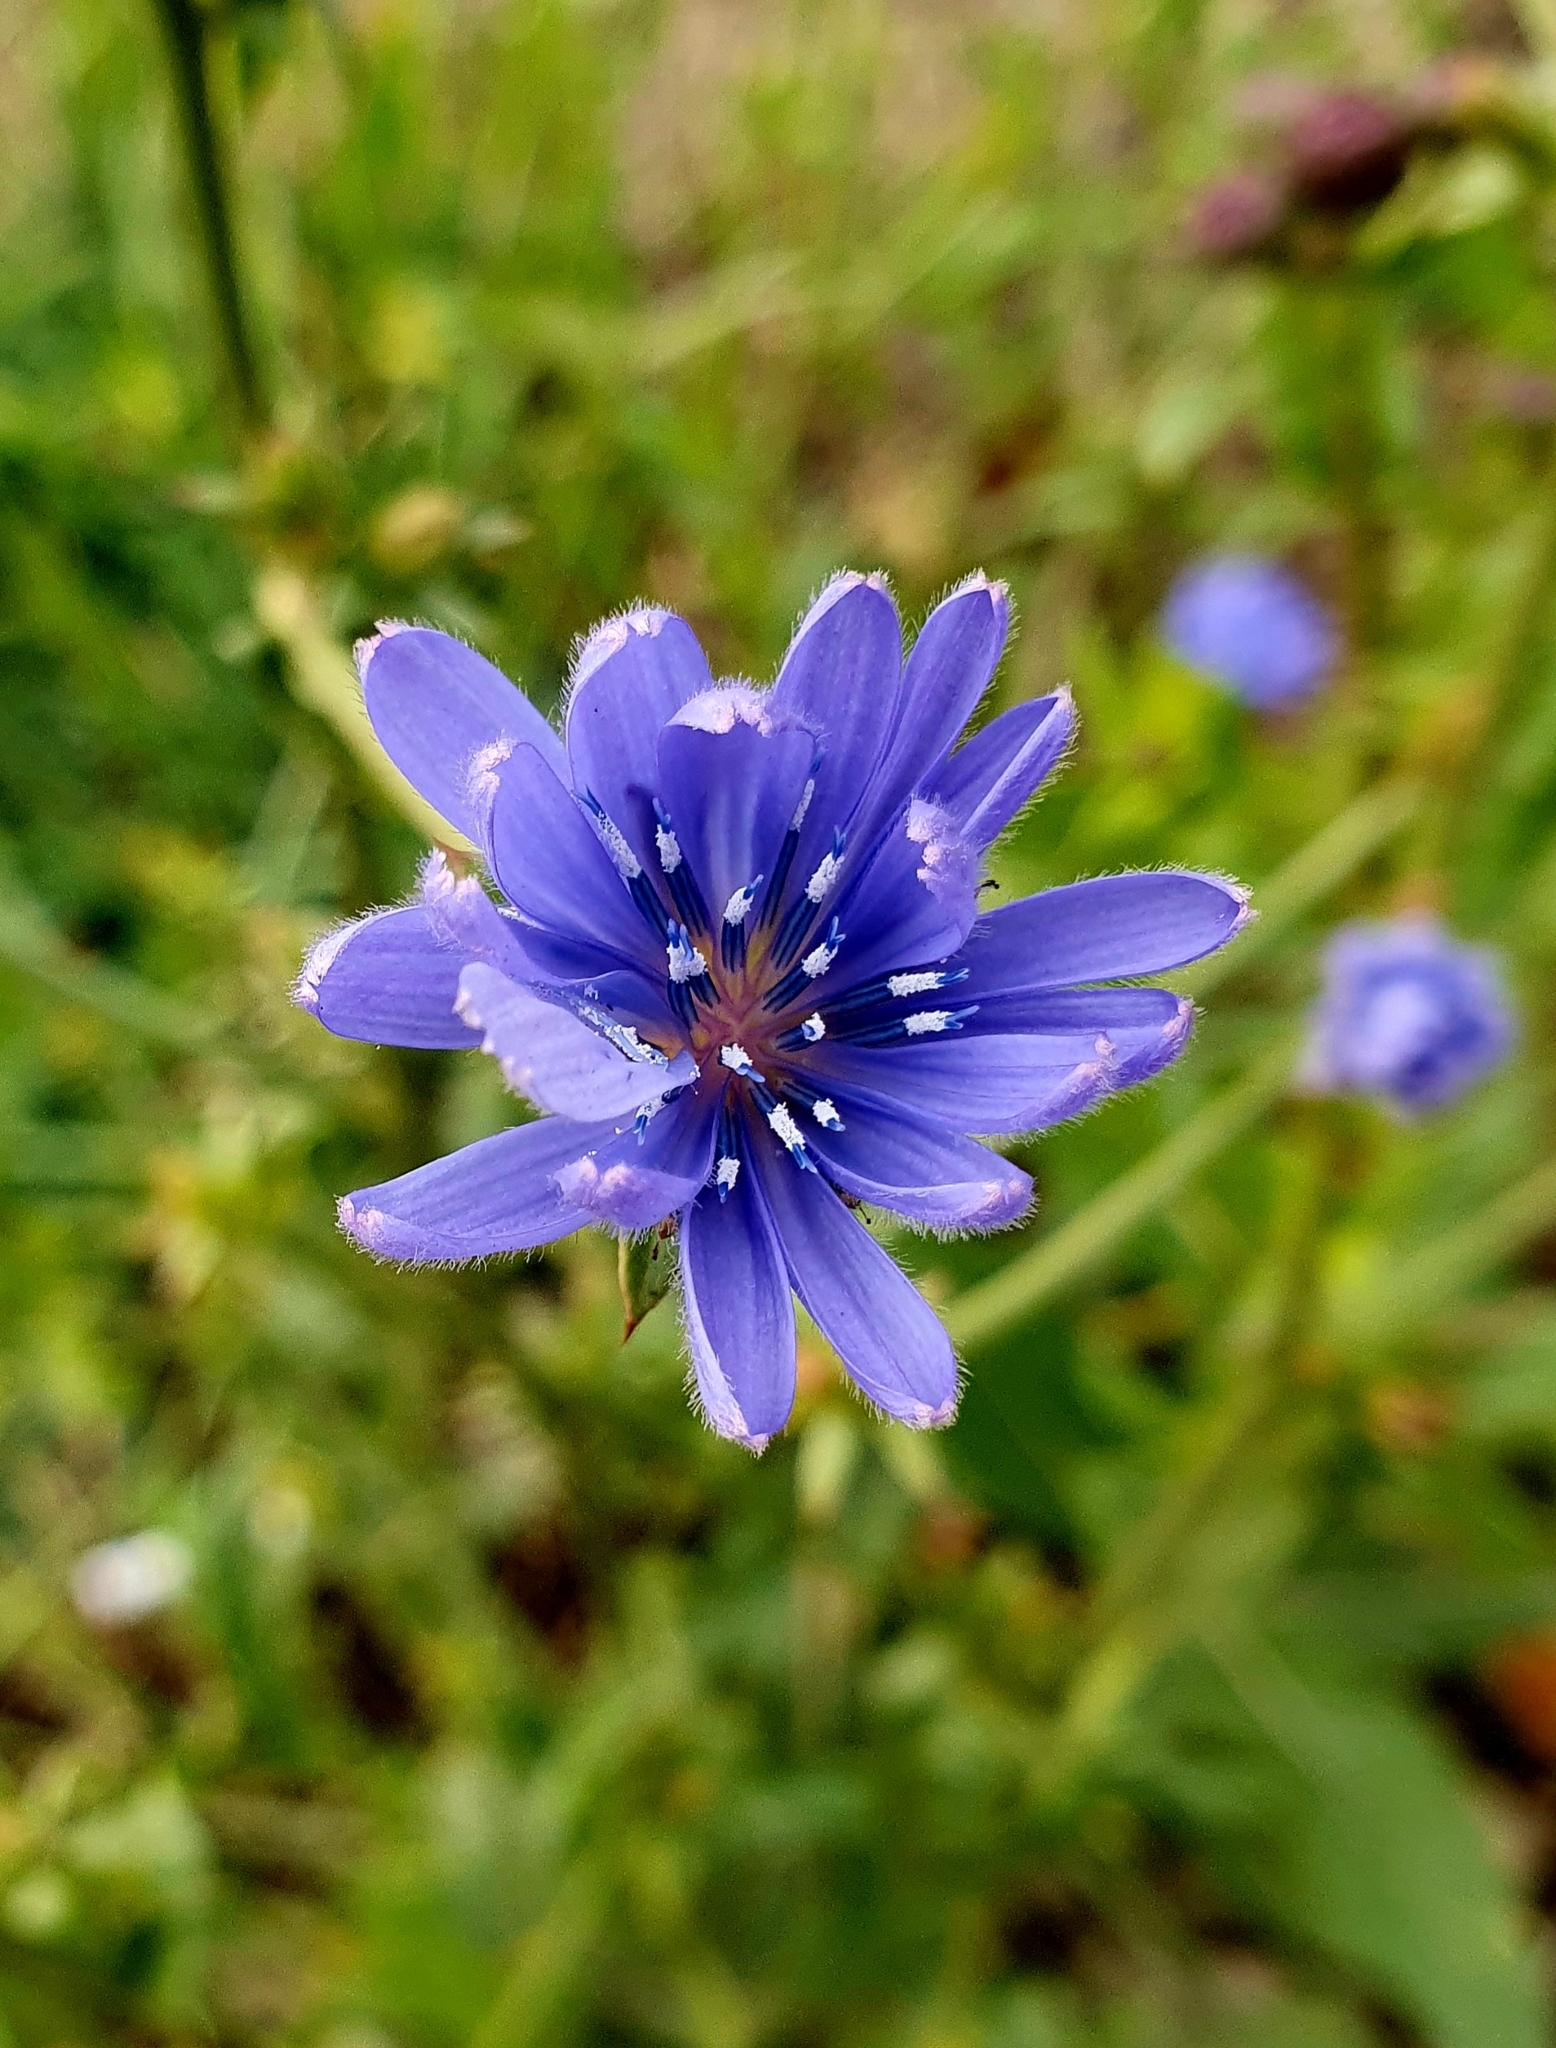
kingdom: Plantae
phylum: Tracheophyta
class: Magnoliopsida
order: Asterales
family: Asteraceae
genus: Cichorium
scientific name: Cichorium intybus
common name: Chicory
